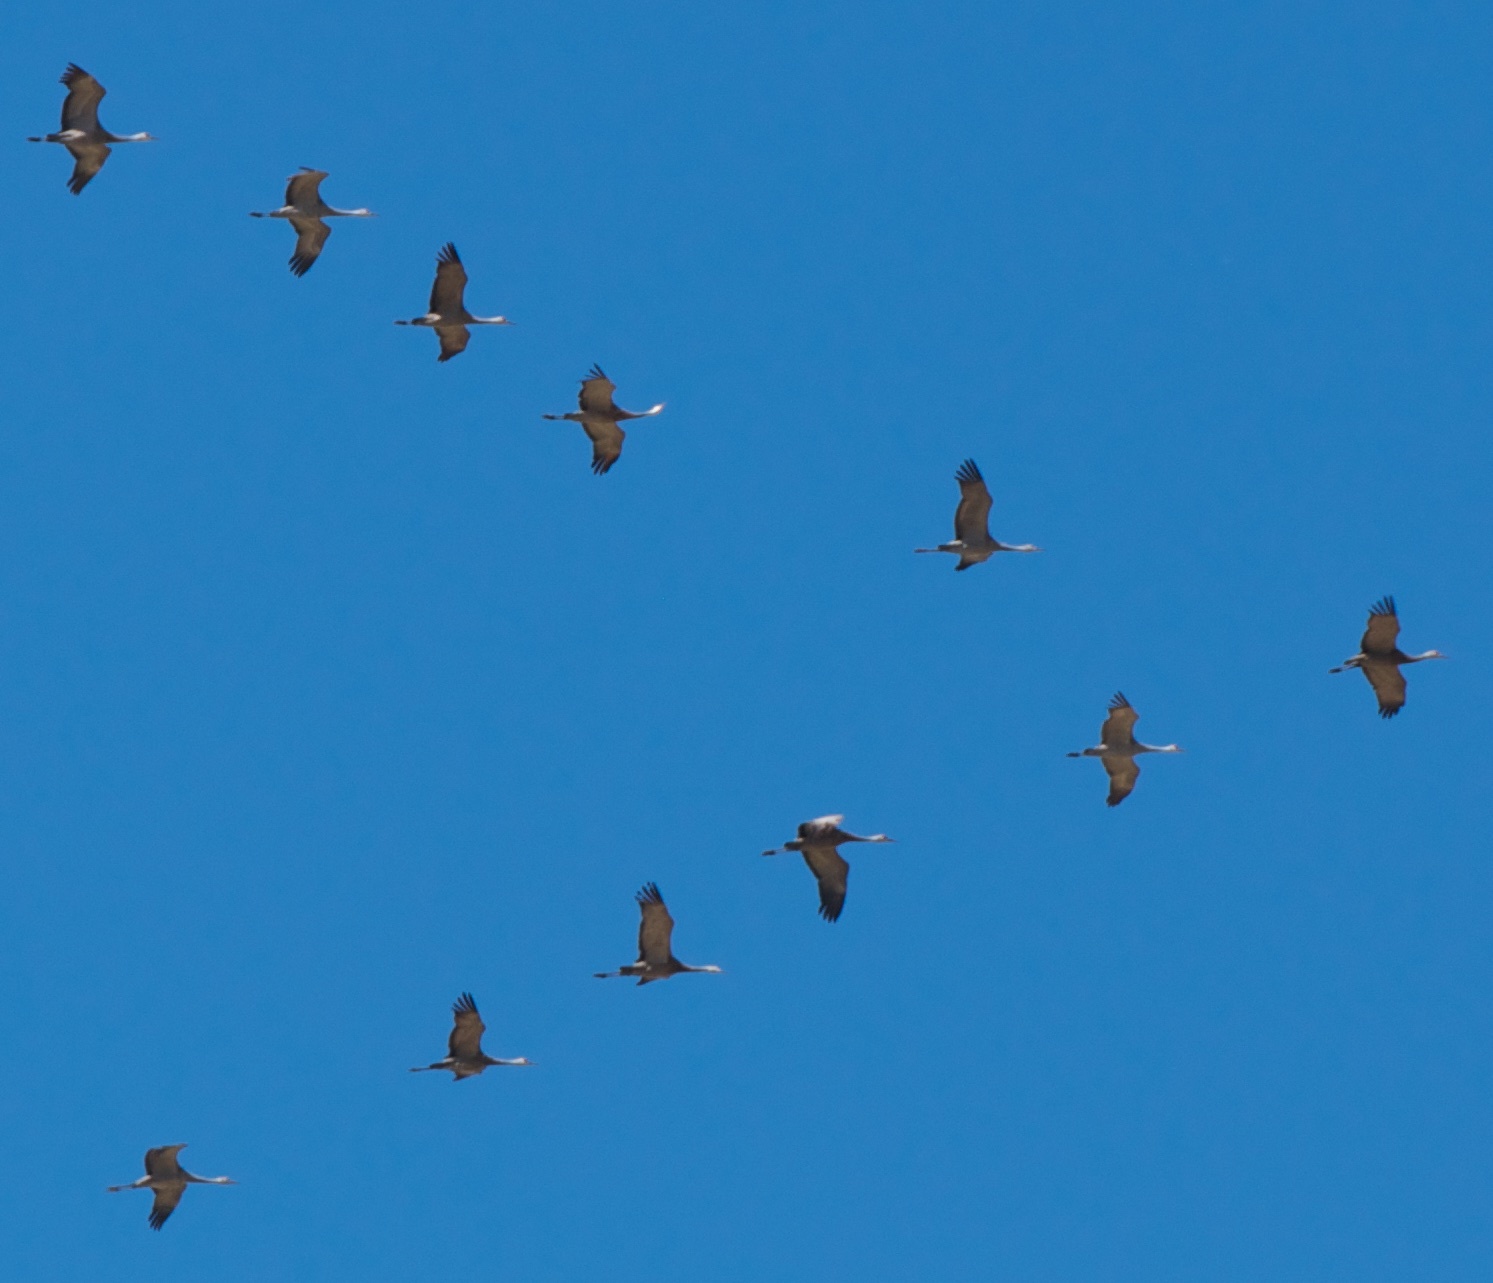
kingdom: Animalia
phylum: Chordata
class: Aves
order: Gruiformes
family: Gruidae
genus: Grus
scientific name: Grus canadensis
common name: Sandhill crane
